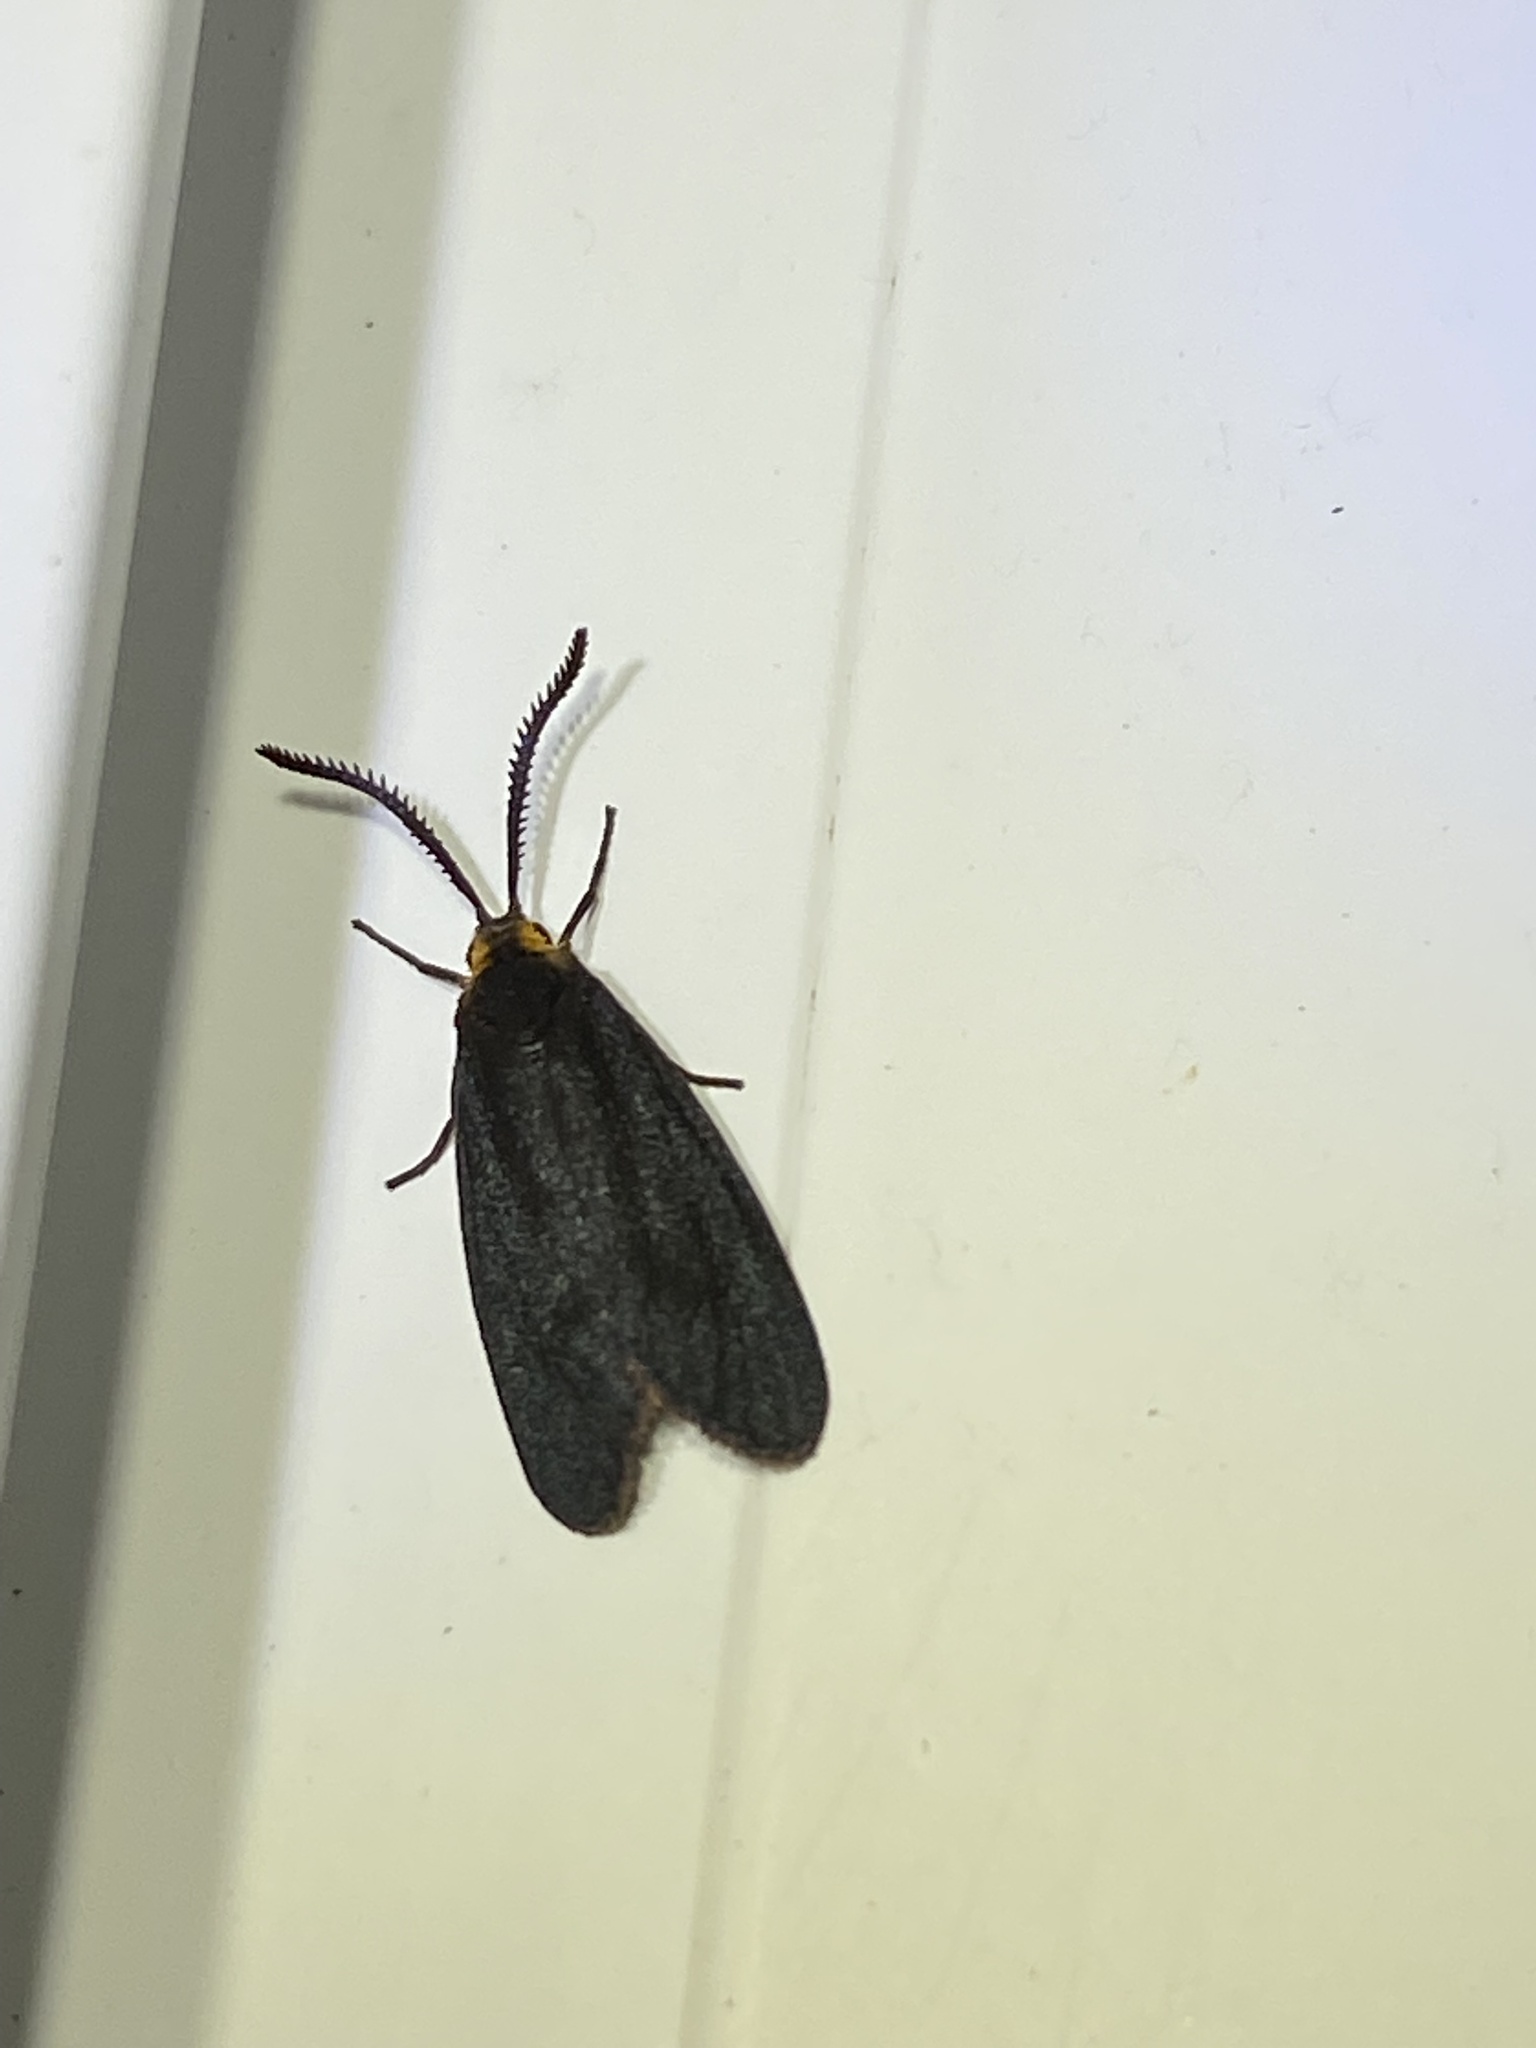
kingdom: Animalia
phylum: Arthropoda
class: Insecta
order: Lepidoptera
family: Zygaenidae
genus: Acoloithus
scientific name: Acoloithus falsarius
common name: Clemens' false skeletonizer
